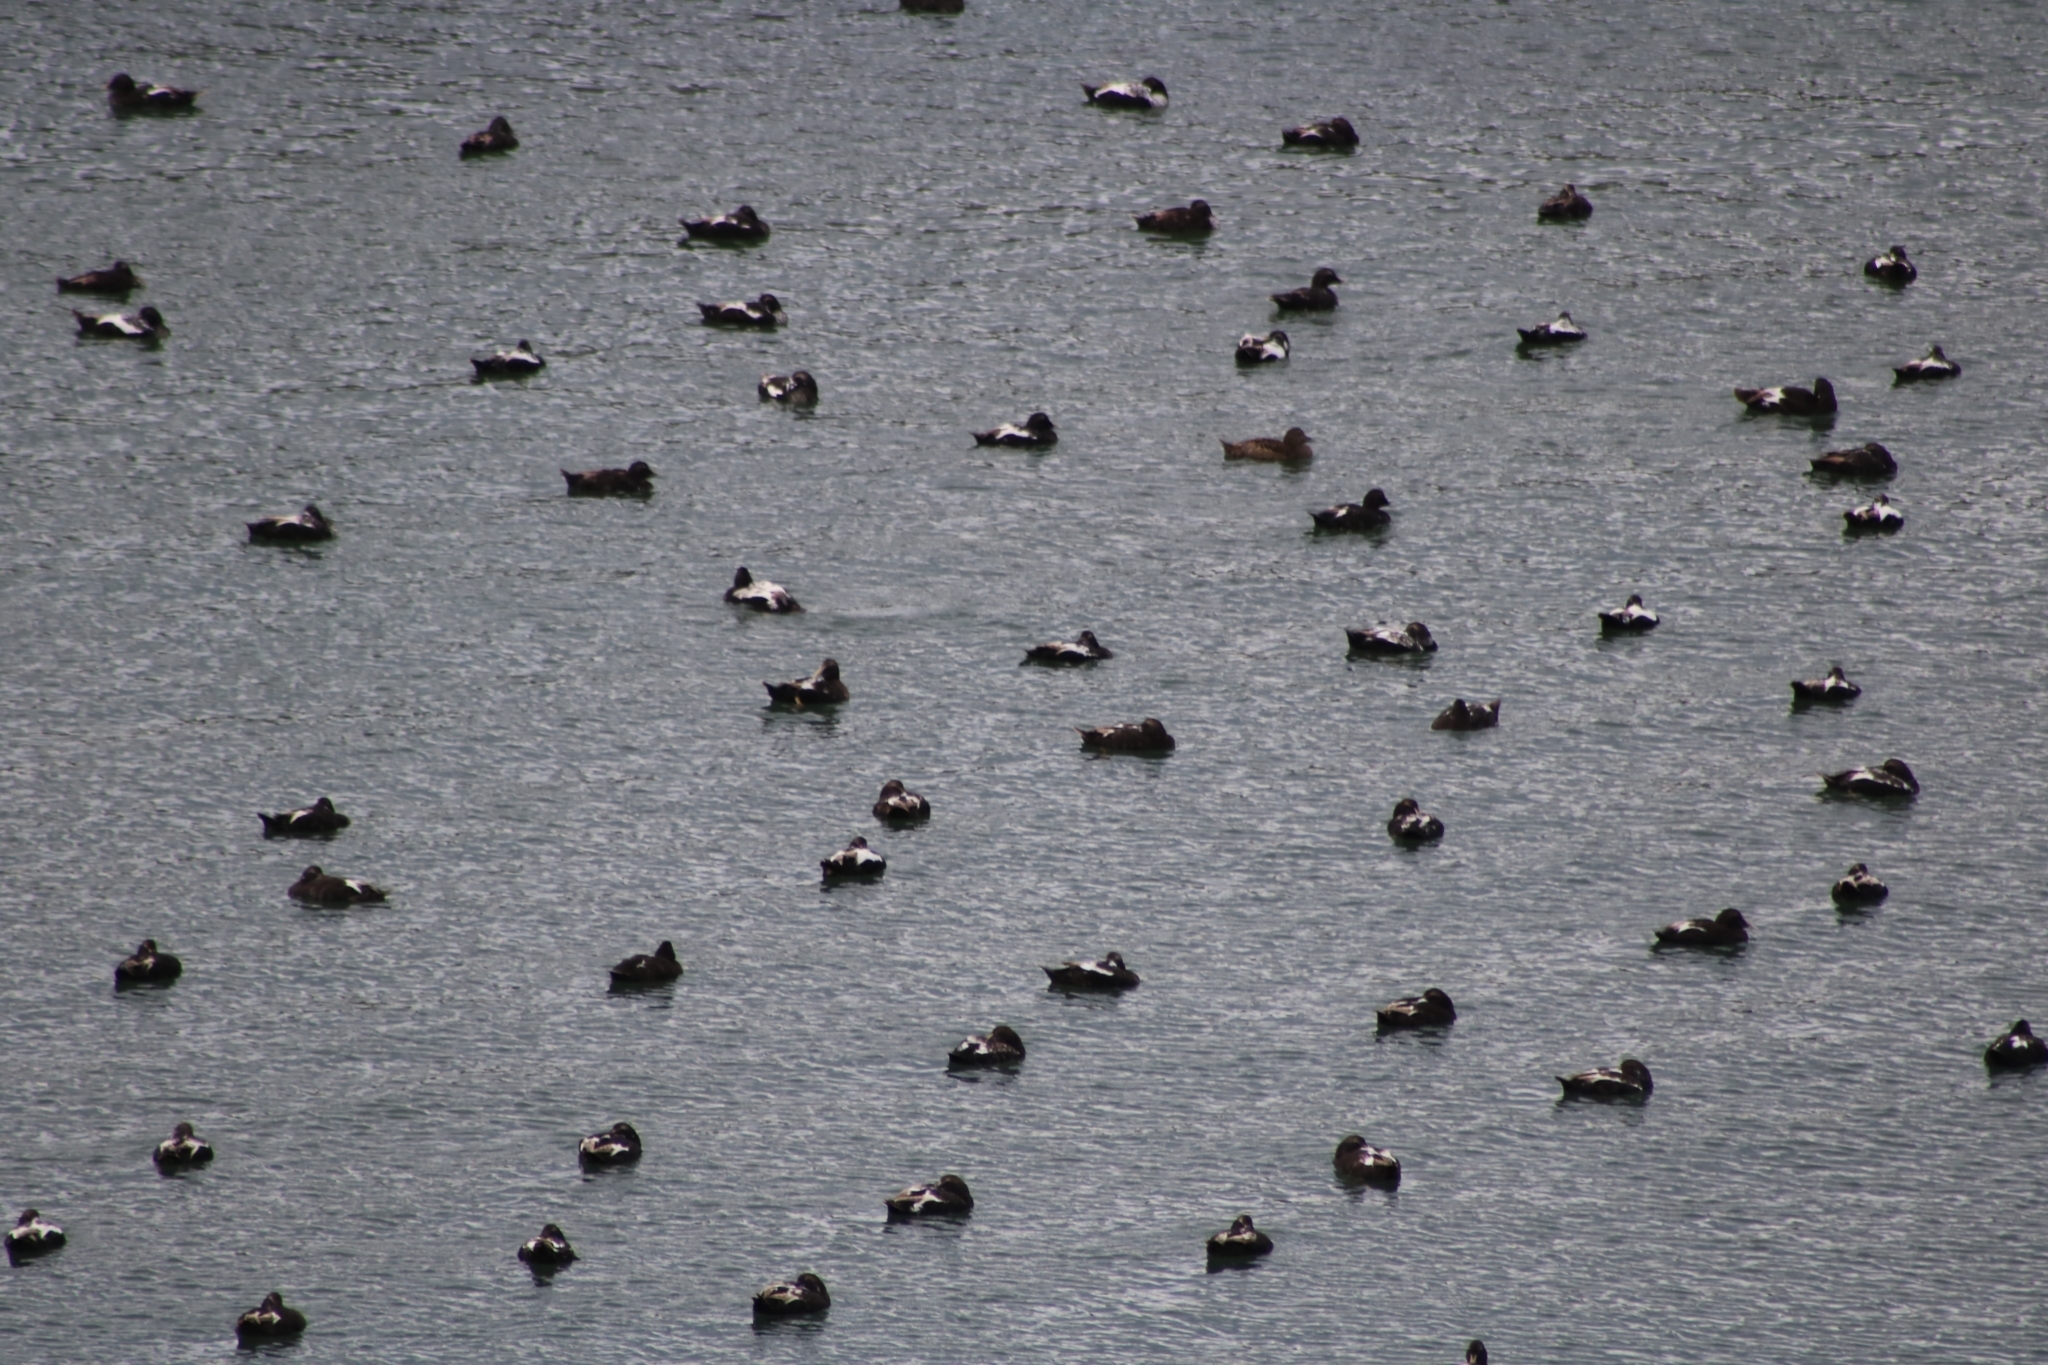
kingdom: Animalia
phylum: Chordata
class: Aves
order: Anseriformes
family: Anatidae
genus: Somateria
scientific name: Somateria mollissima
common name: Common eider
